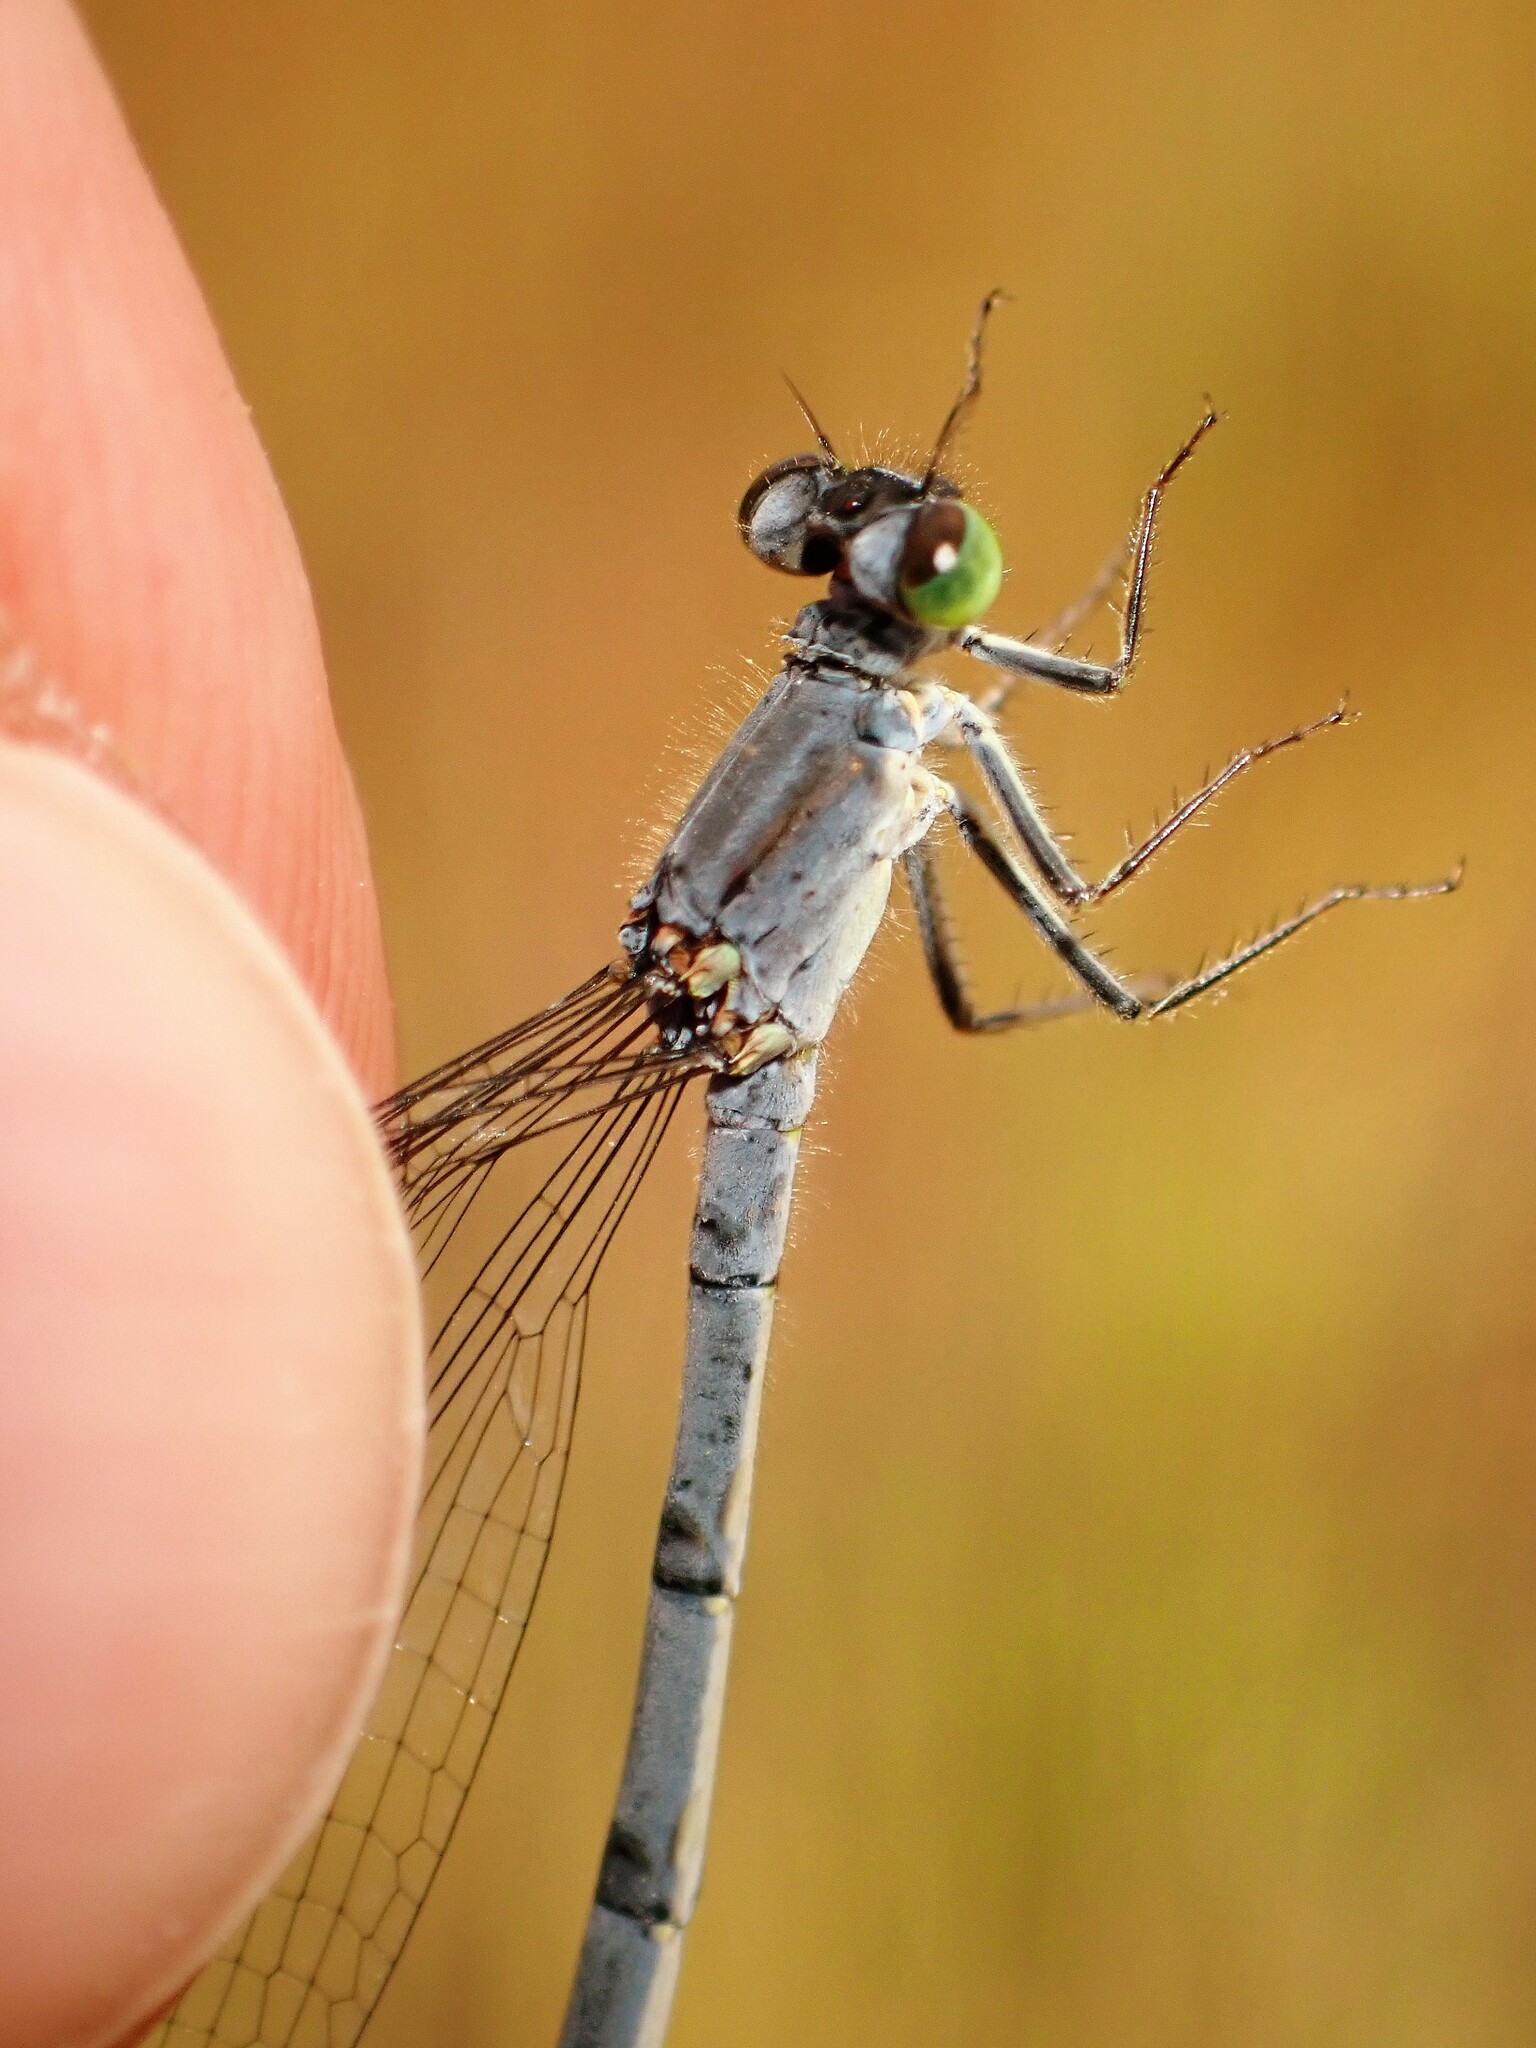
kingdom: Animalia
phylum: Arthropoda
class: Insecta
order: Odonata
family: Coenagrionidae
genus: Ischnura
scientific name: Ischnura verticalis
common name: Eastern forktail
